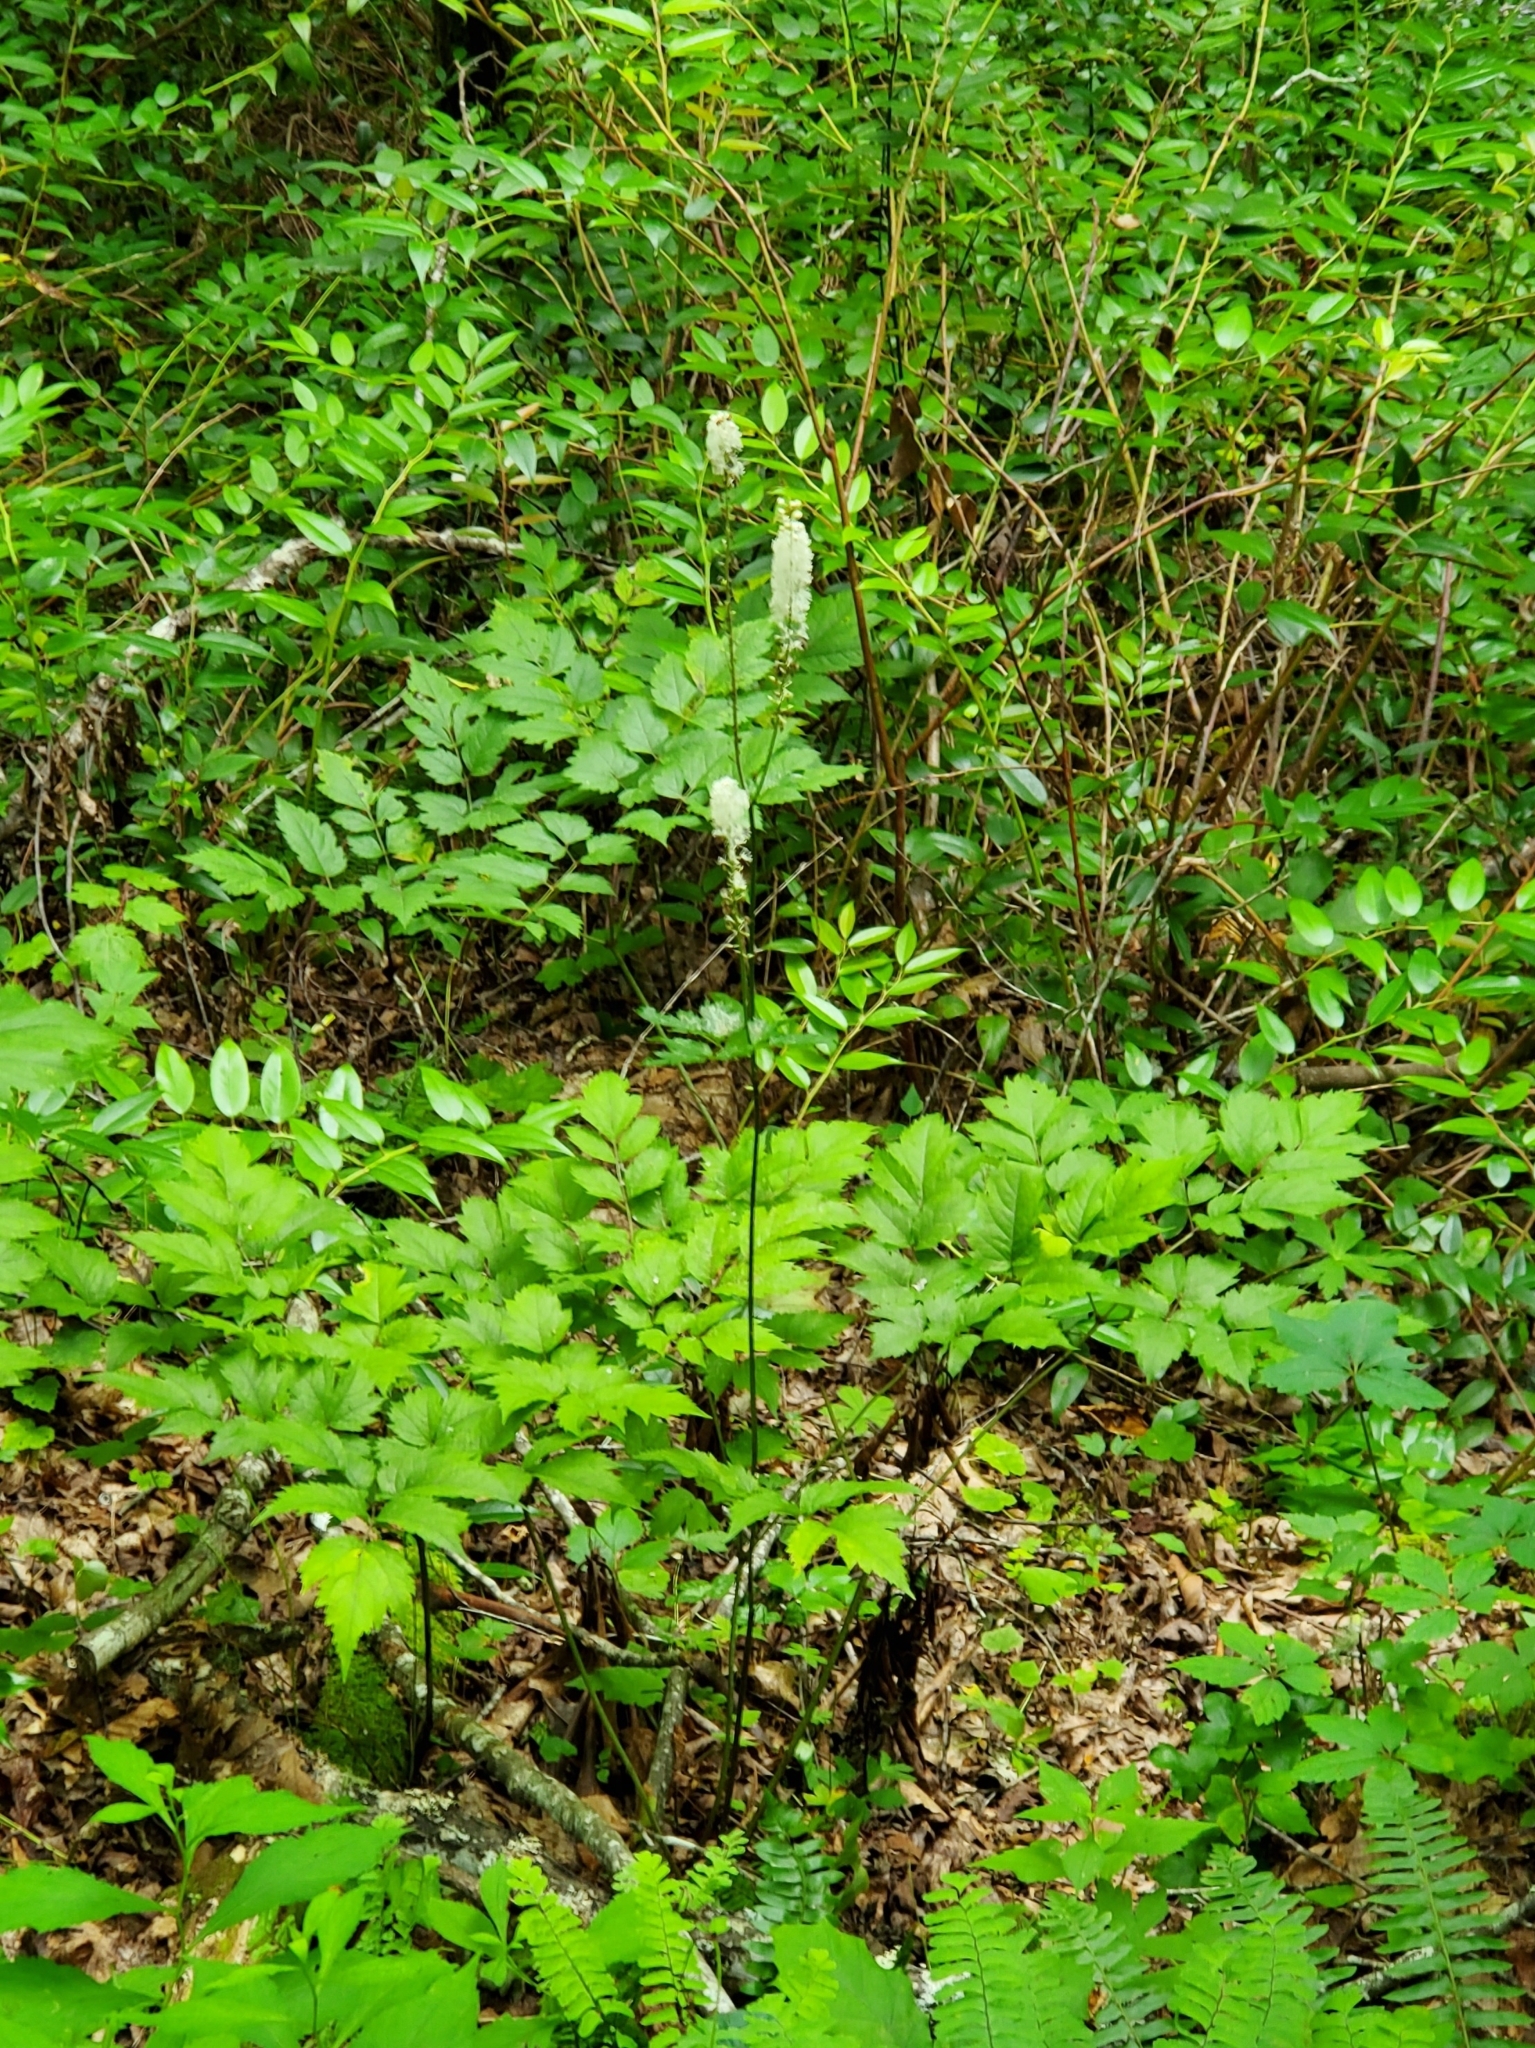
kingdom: Plantae
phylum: Tracheophyta
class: Magnoliopsida
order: Ranunculales
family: Ranunculaceae
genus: Actaea
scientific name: Actaea racemosa
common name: Black cohosh
